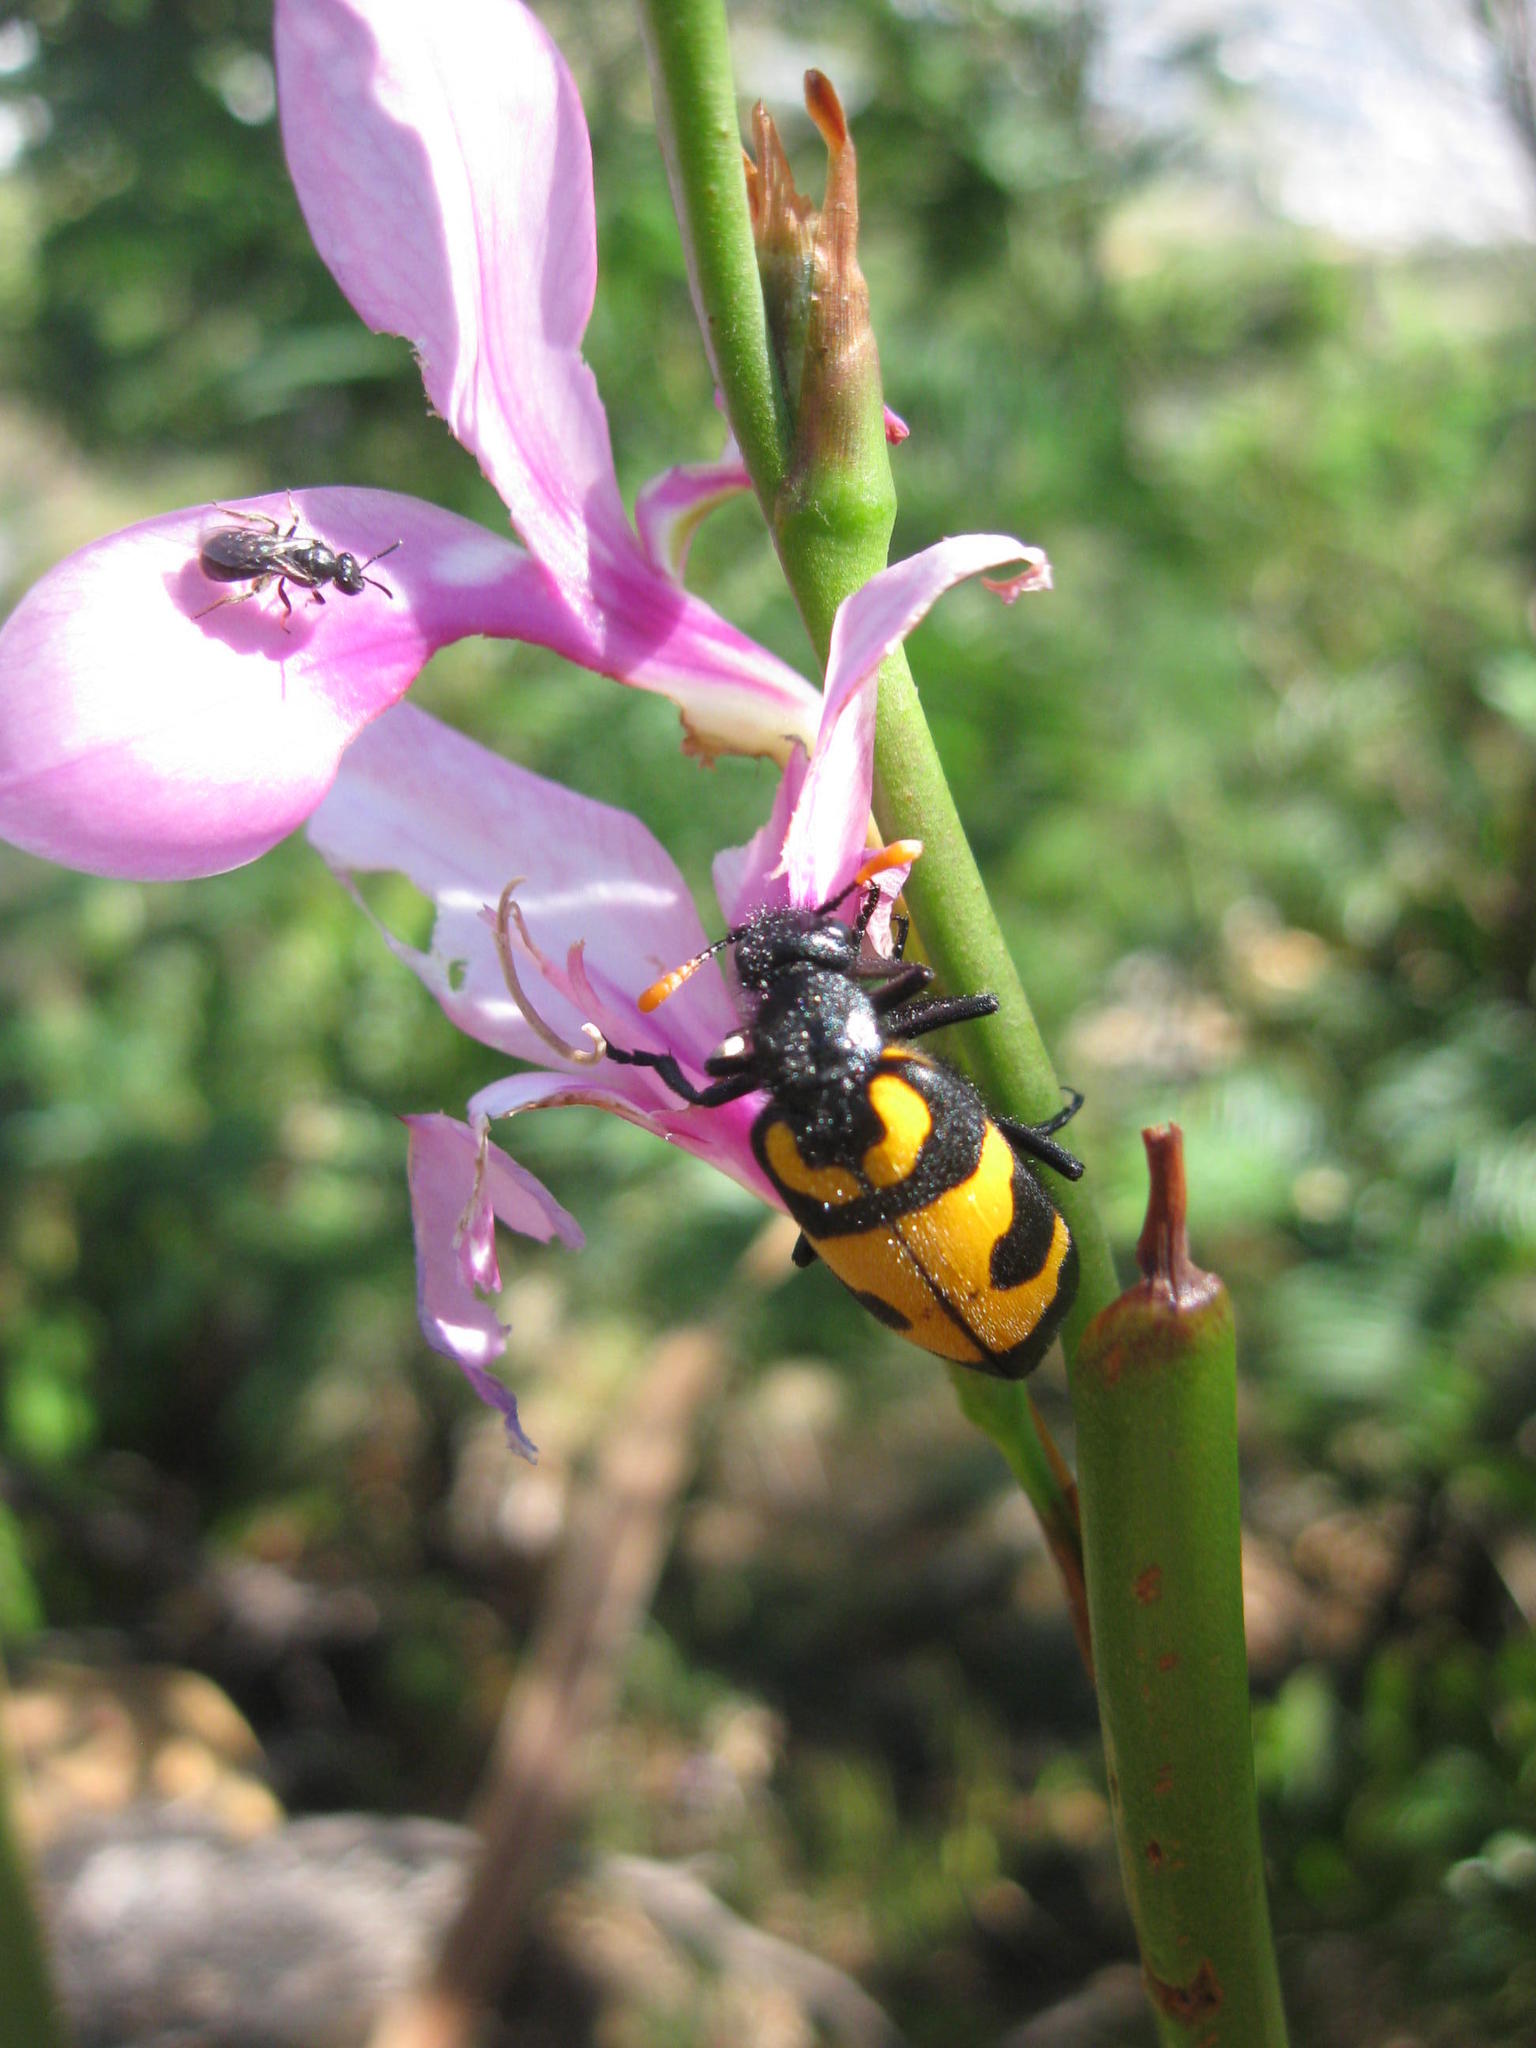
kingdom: Animalia
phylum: Arthropoda
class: Insecta
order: Coleoptera
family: Meloidae
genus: Meloe
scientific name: Meloe lunata
